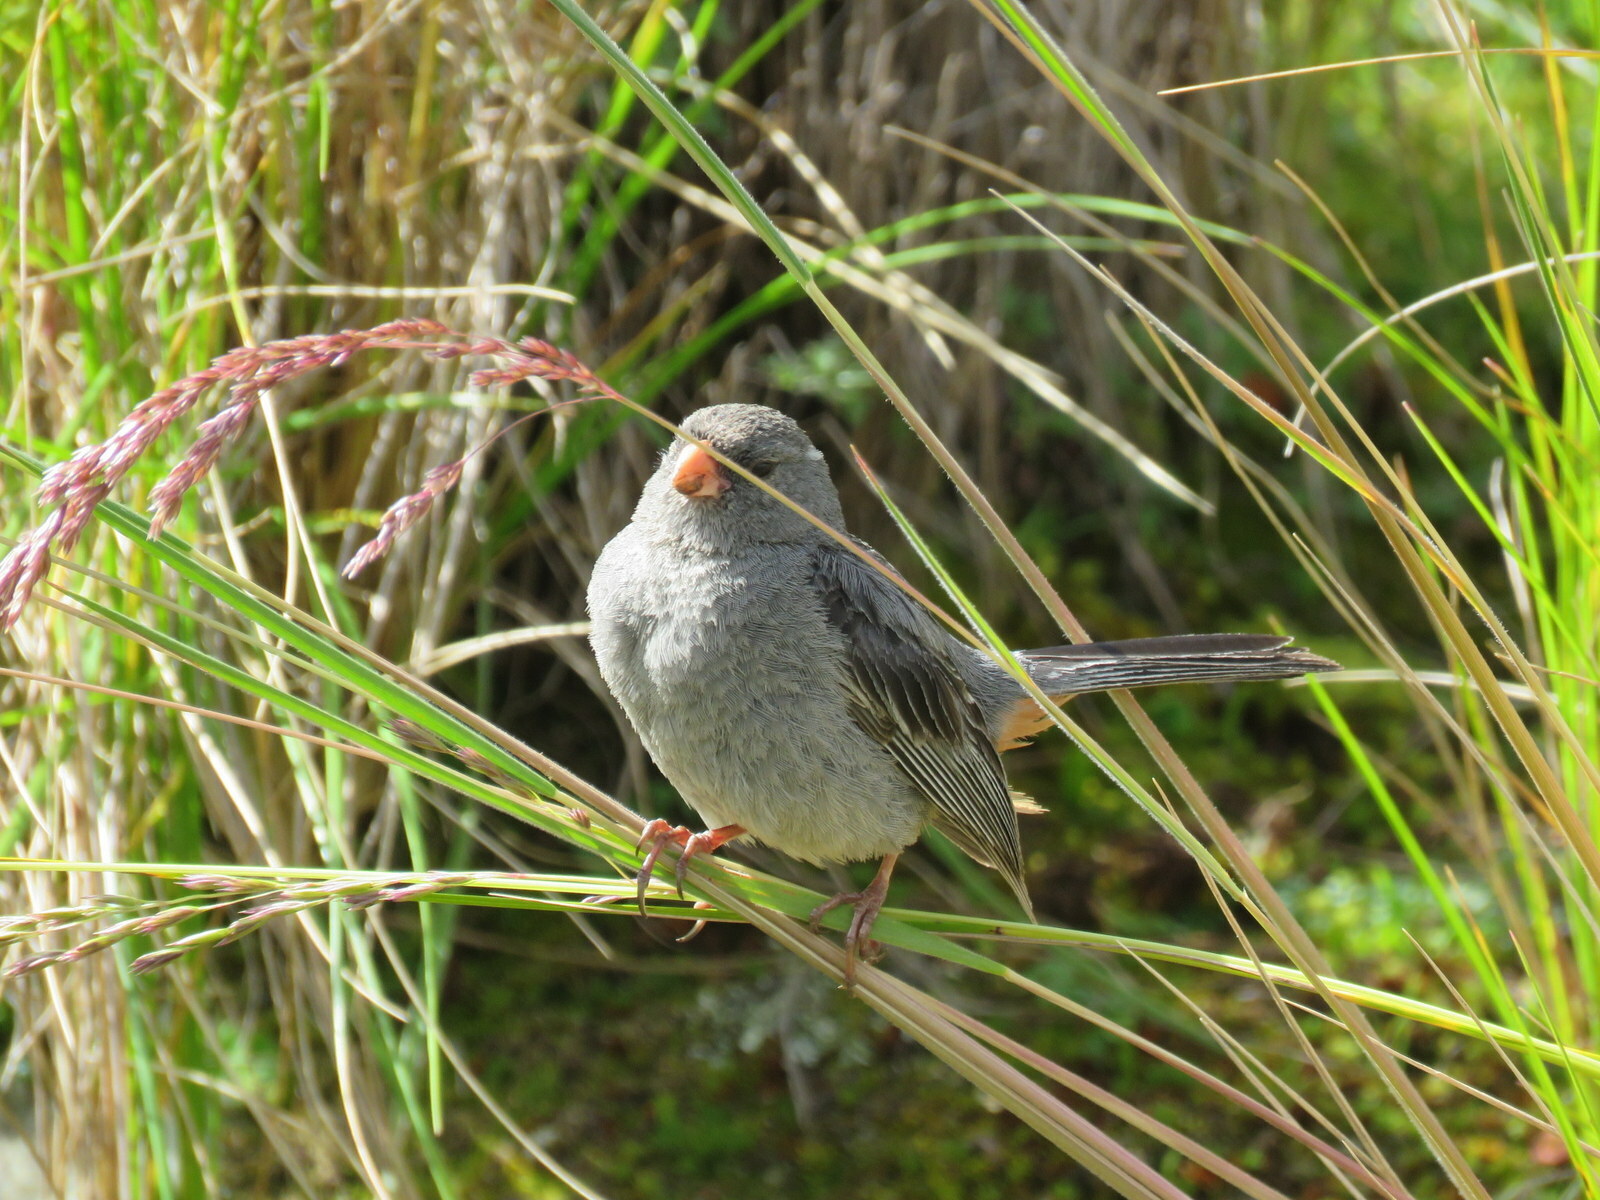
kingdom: Animalia
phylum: Chordata
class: Aves
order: Passeriformes
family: Thraupidae
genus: Catamenia
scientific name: Catamenia inornata
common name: Plain-colored seedeater
